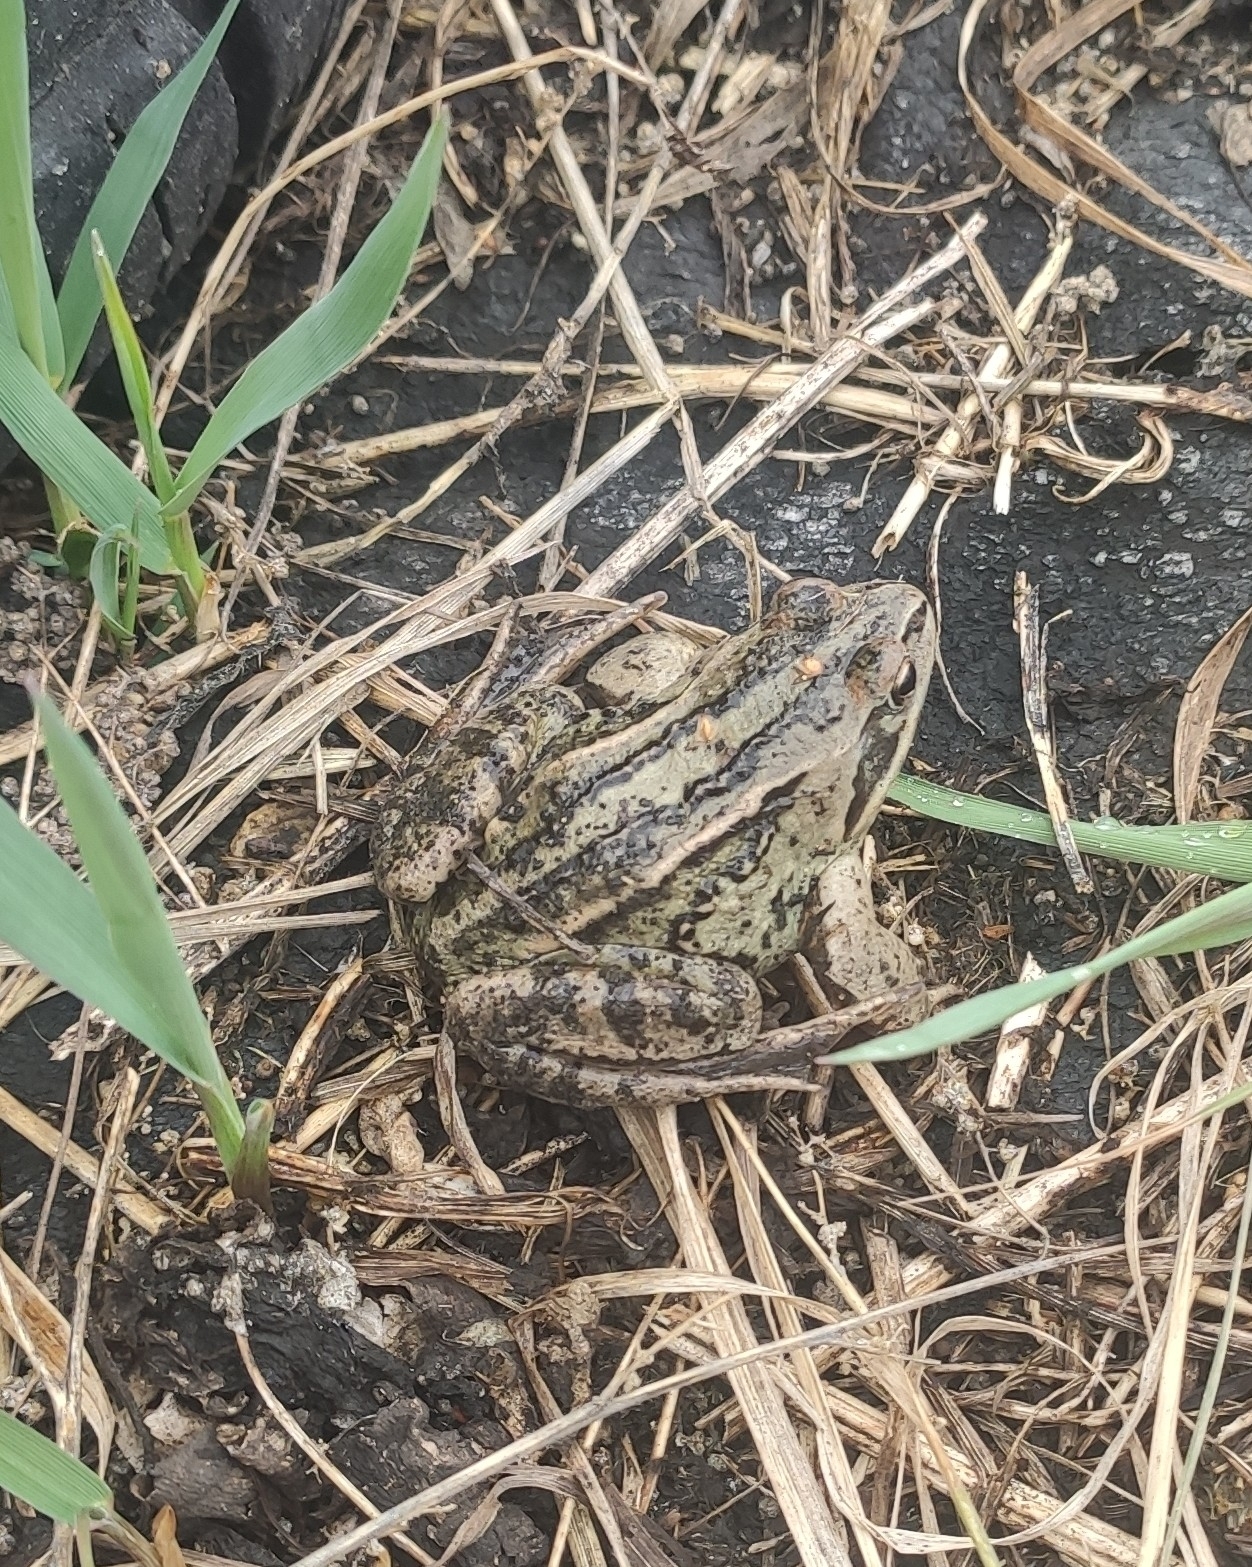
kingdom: Animalia
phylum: Chordata
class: Amphibia
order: Anura
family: Ranidae
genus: Rana
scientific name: Rana arvalis
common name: Moor frog
